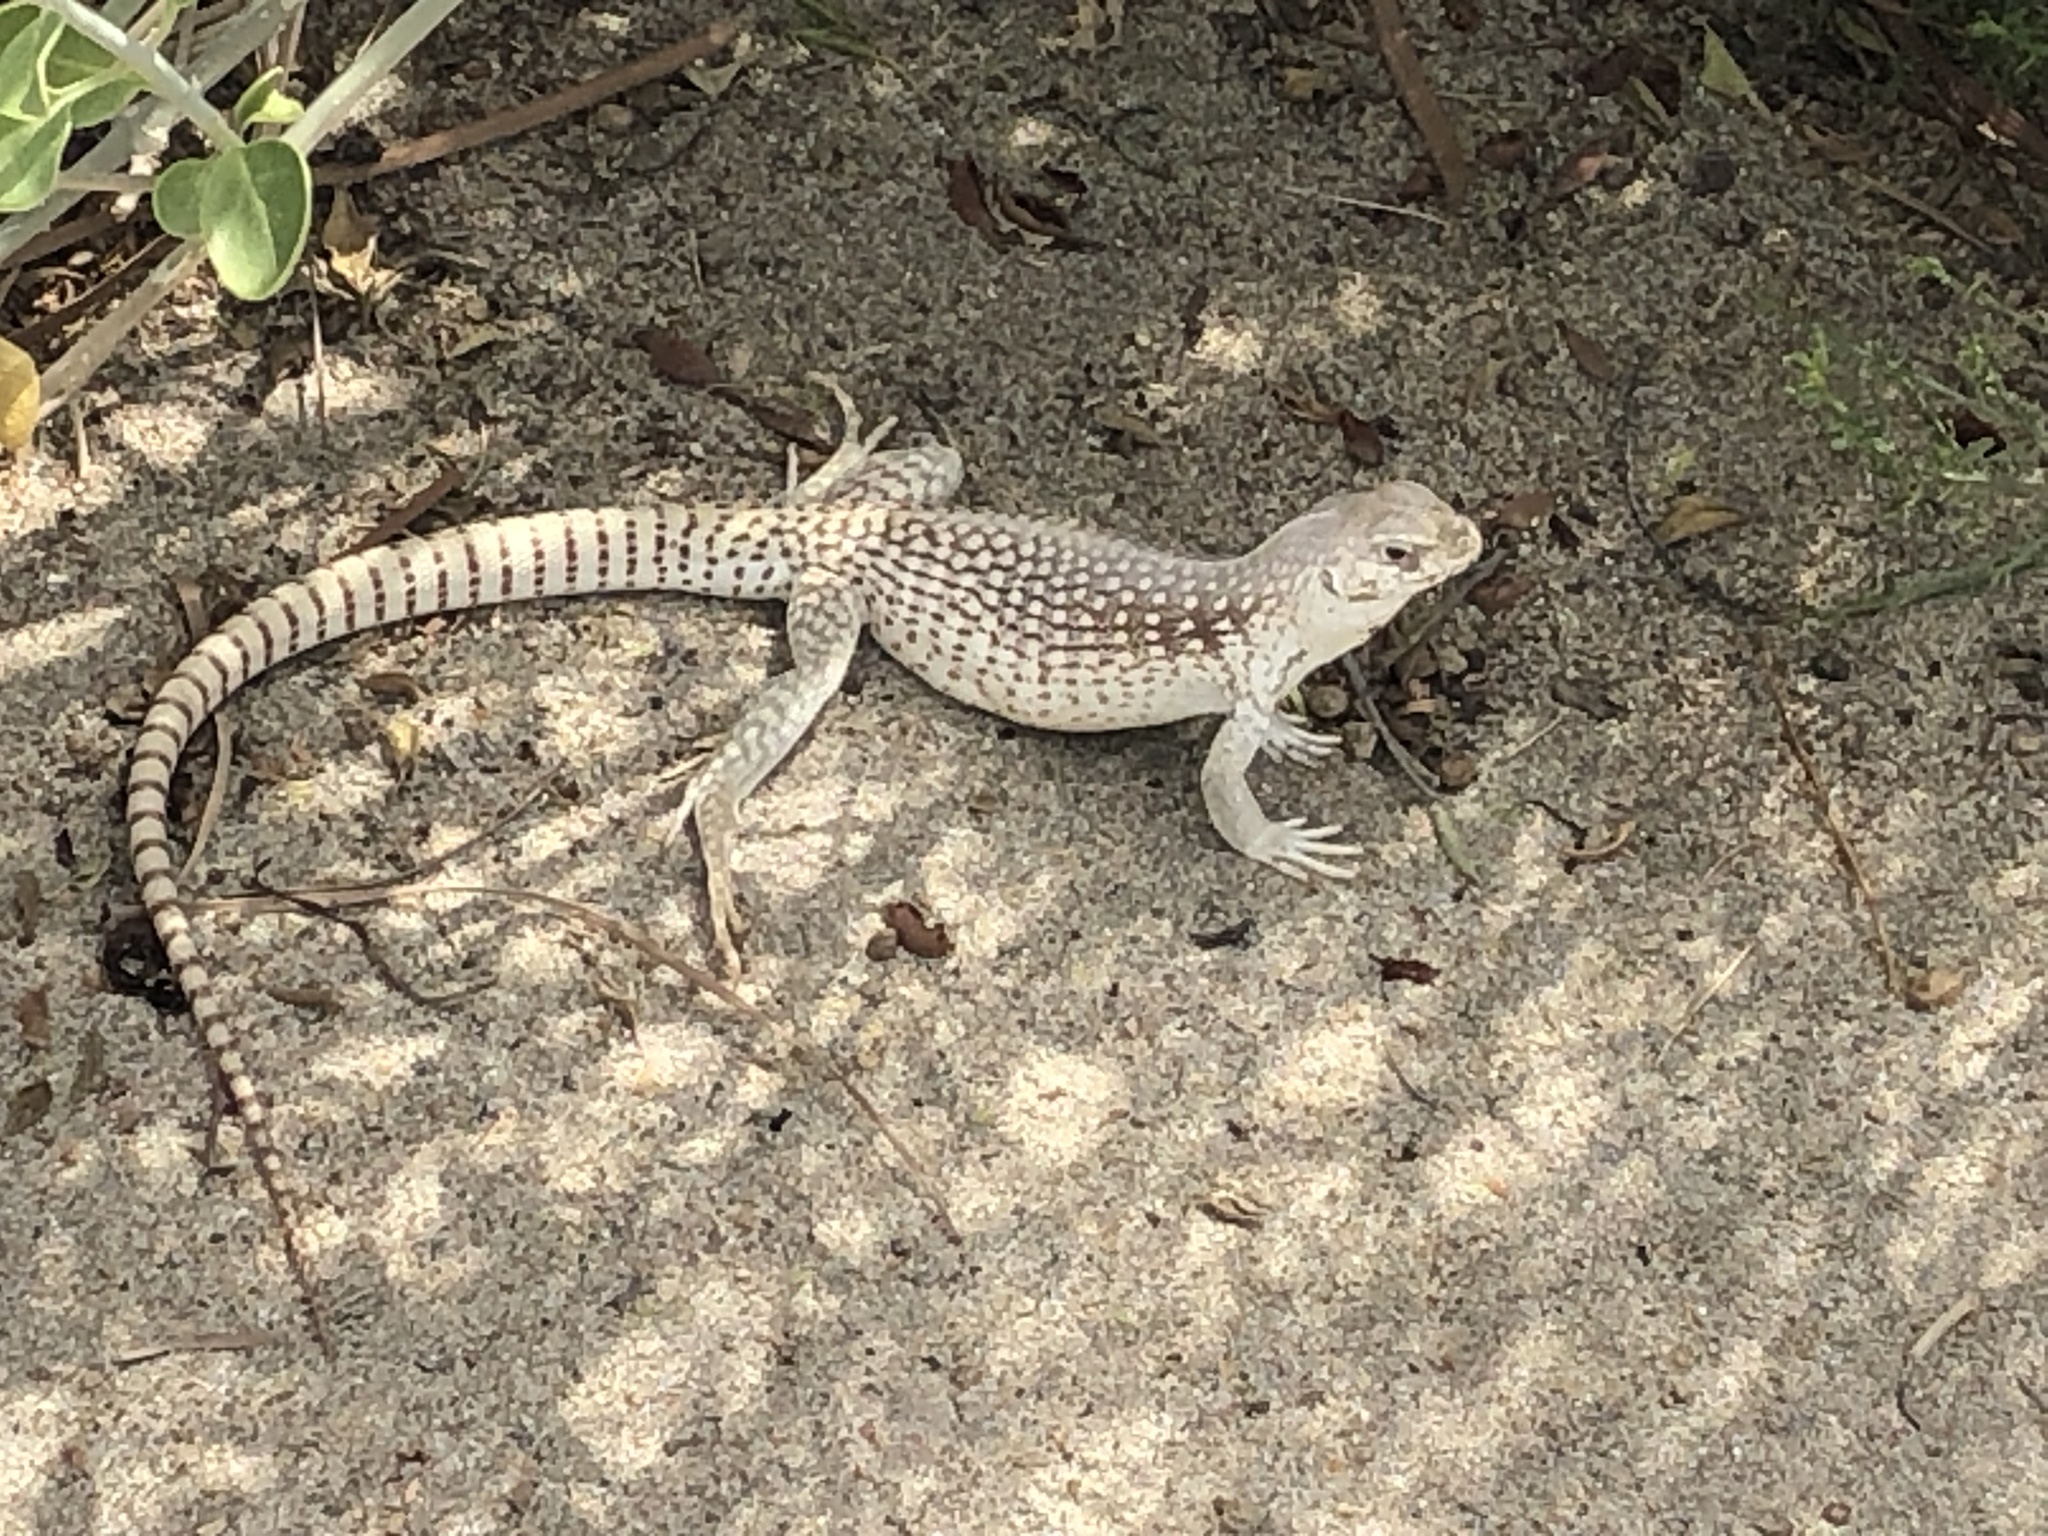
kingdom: Animalia
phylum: Chordata
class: Squamata
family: Iguanidae
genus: Dipsosaurus
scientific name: Dipsosaurus dorsalis
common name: Desert iguana
